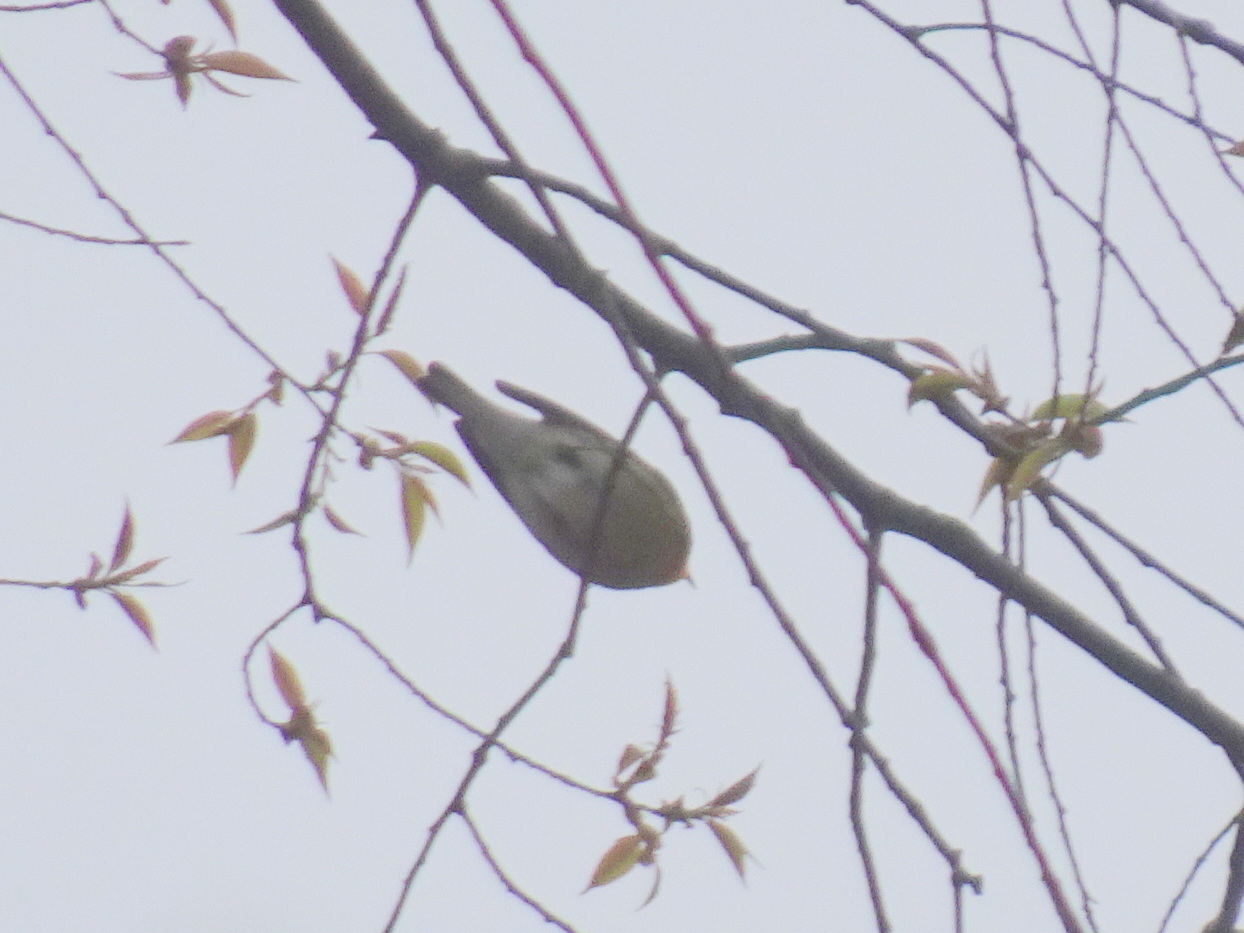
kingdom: Animalia
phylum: Chordata
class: Aves
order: Passeriformes
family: Parulidae
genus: Setophaga
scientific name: Setophaga fusca
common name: Blackburnian warbler
